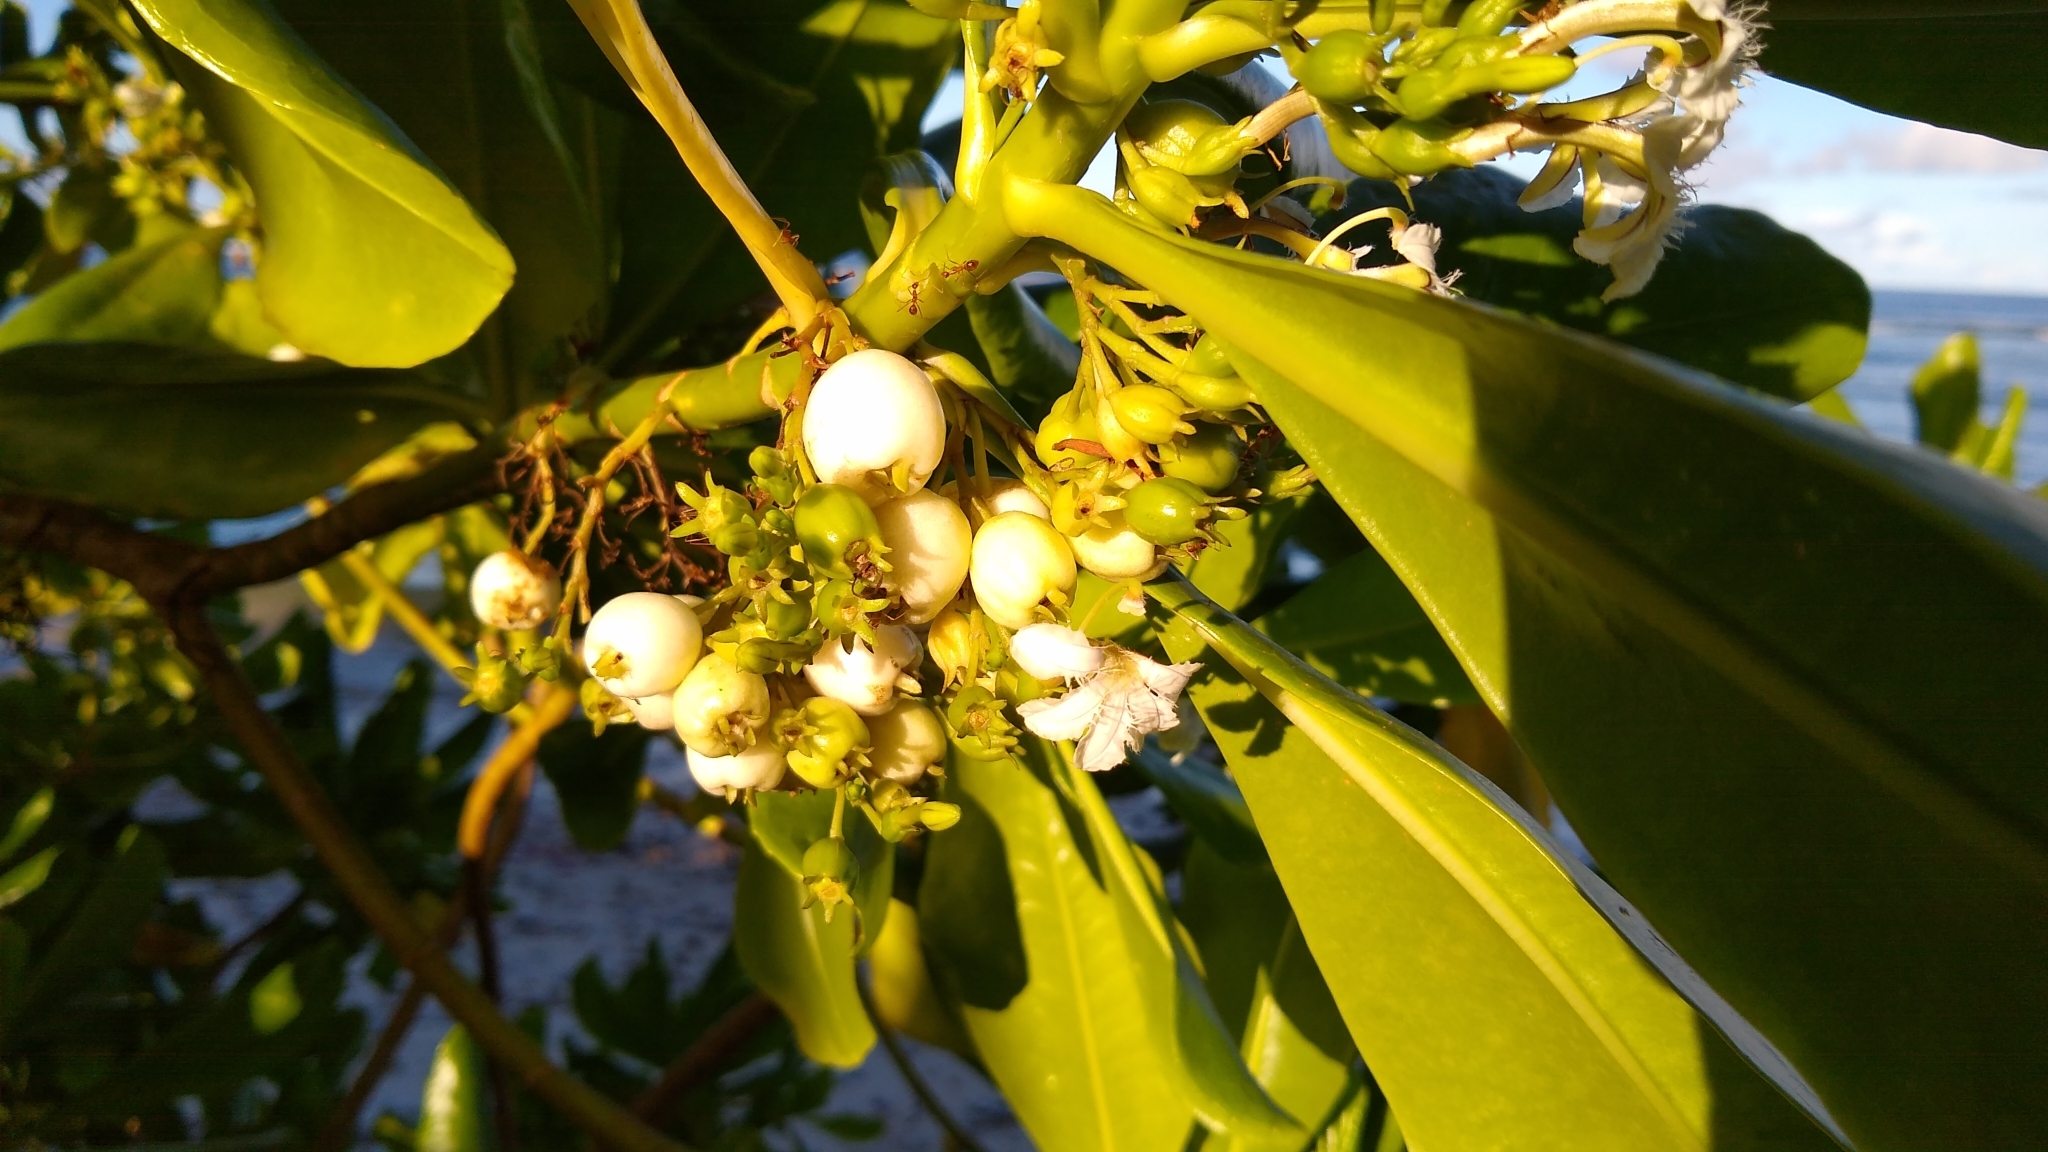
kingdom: Plantae
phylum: Tracheophyta
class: Magnoliopsida
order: Asterales
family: Goodeniaceae
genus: Scaevola
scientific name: Scaevola taccada
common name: Sea lettucetree
